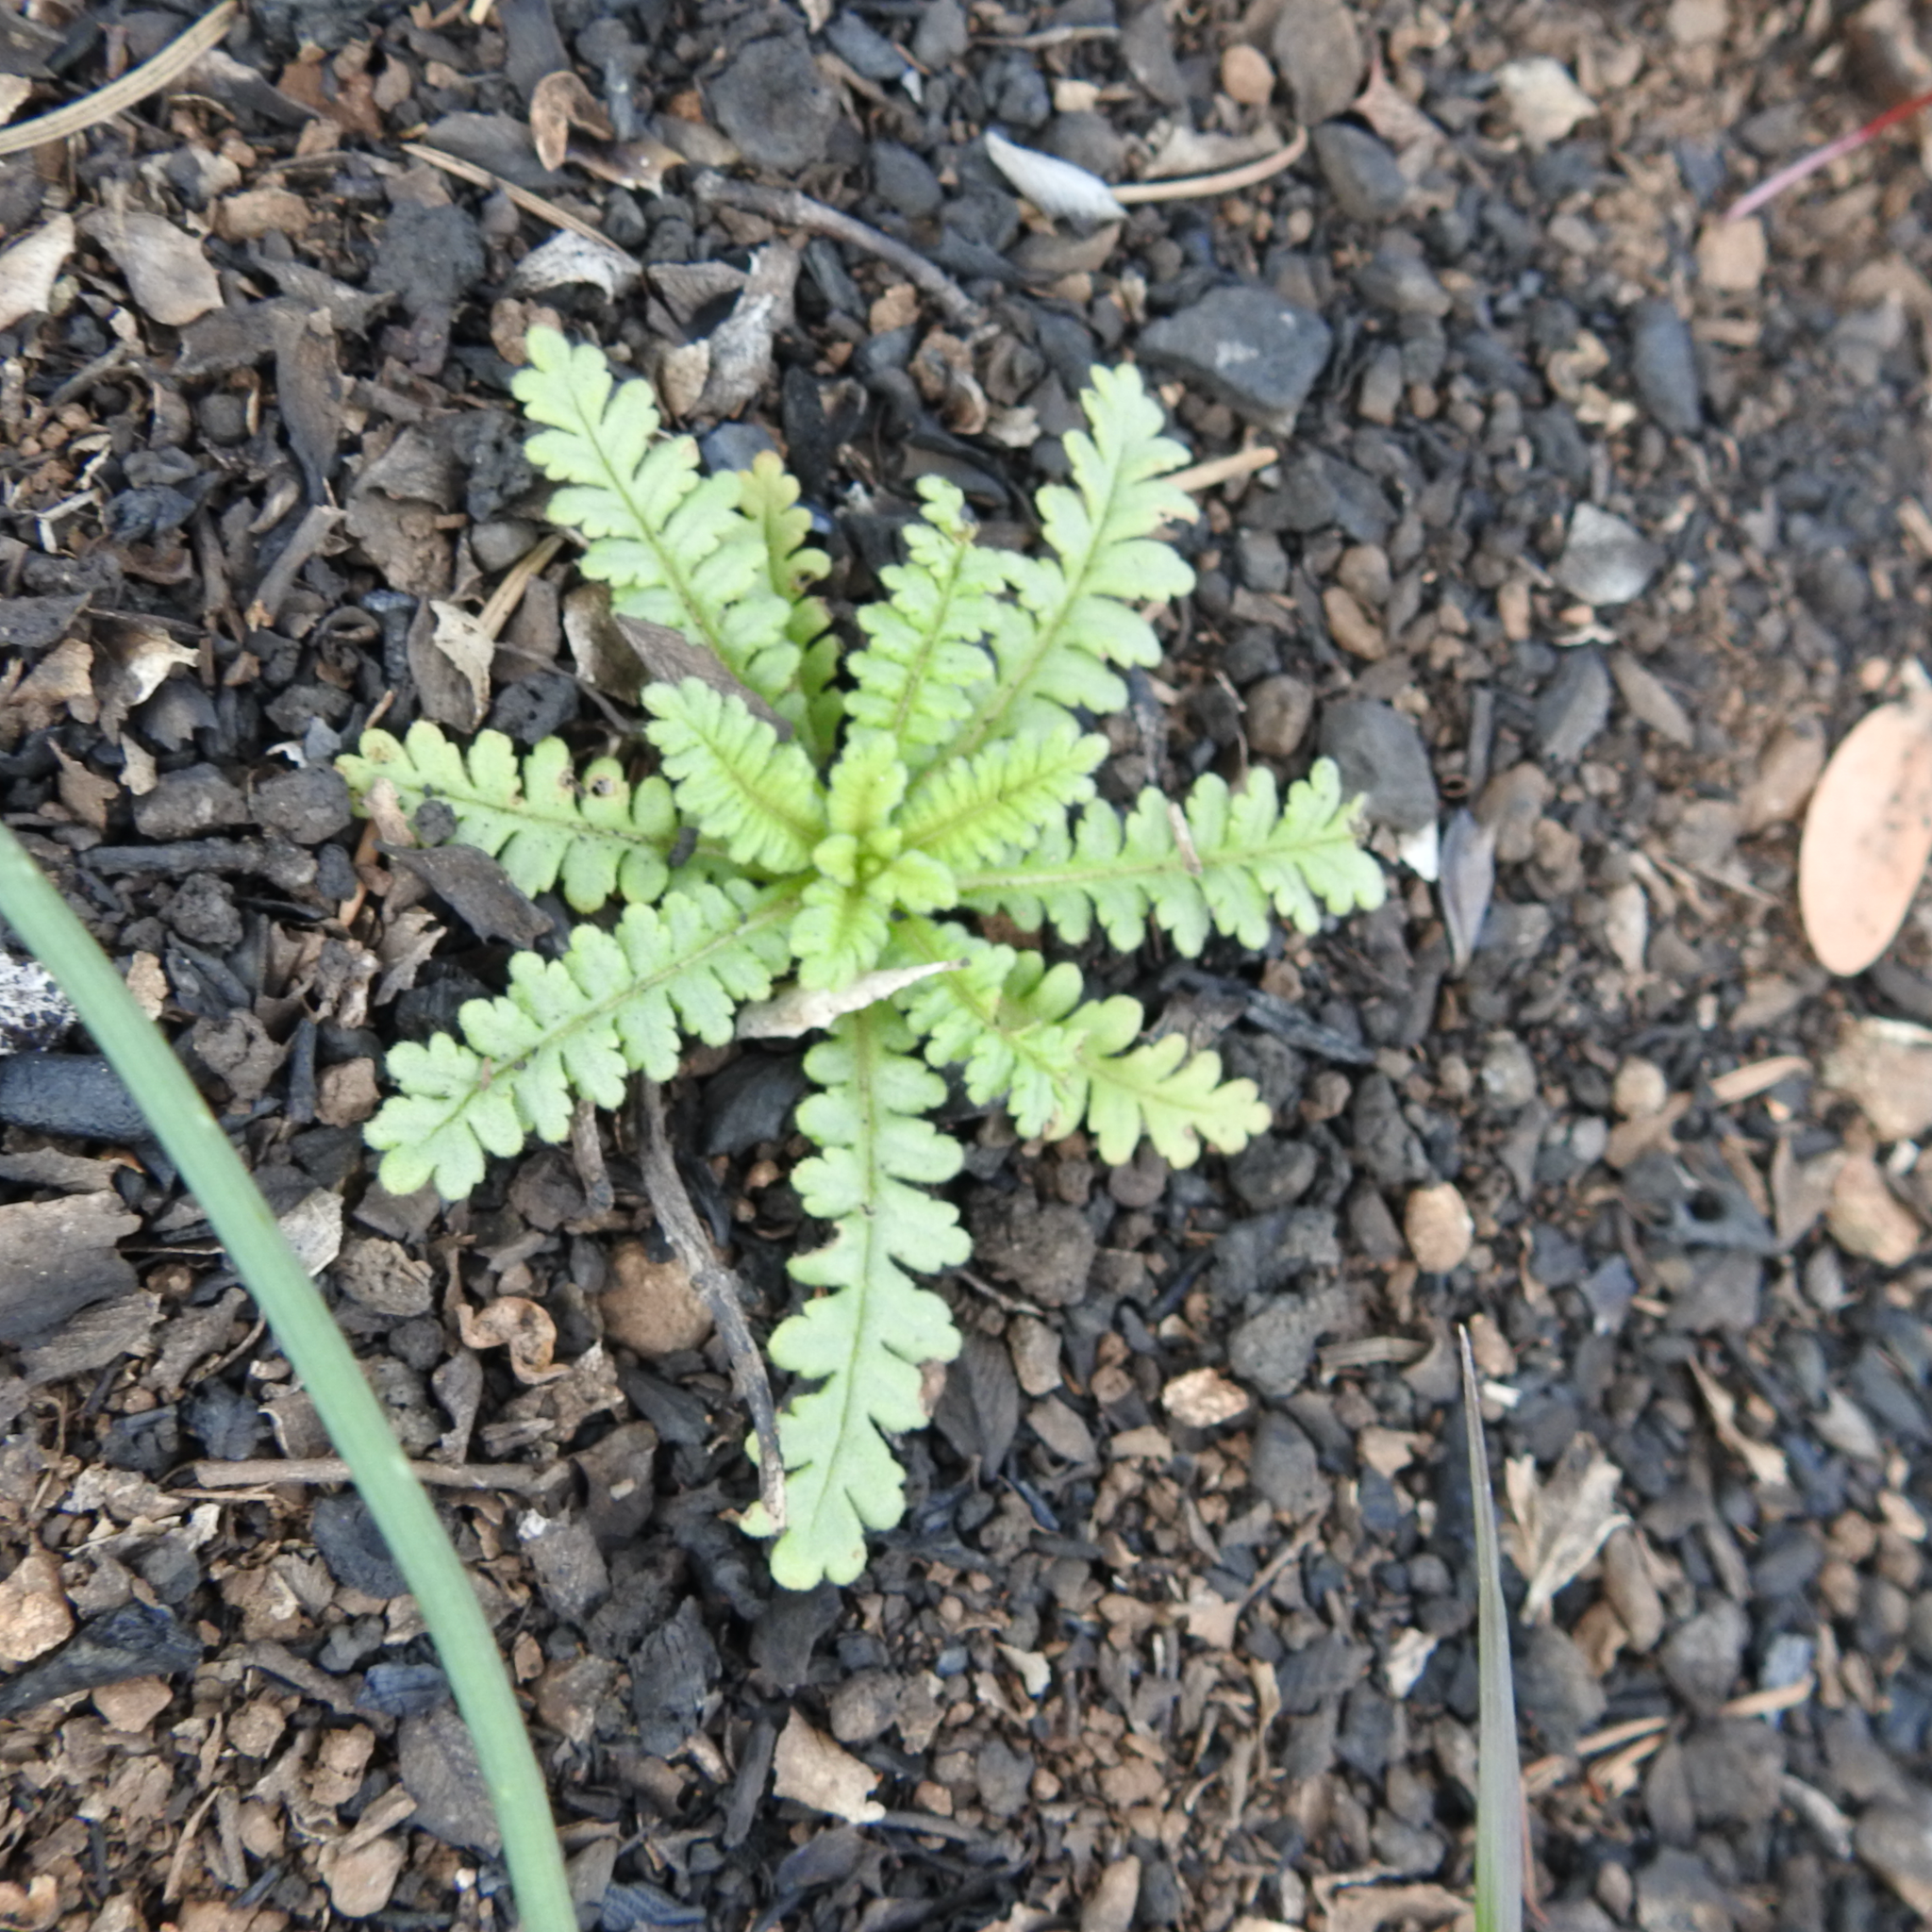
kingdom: Plantae
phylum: Tracheophyta
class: Magnoliopsida
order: Boraginales
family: Hydrophyllaceae
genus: Emmenanthe
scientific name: Emmenanthe penduliflora
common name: Whispering-bells
